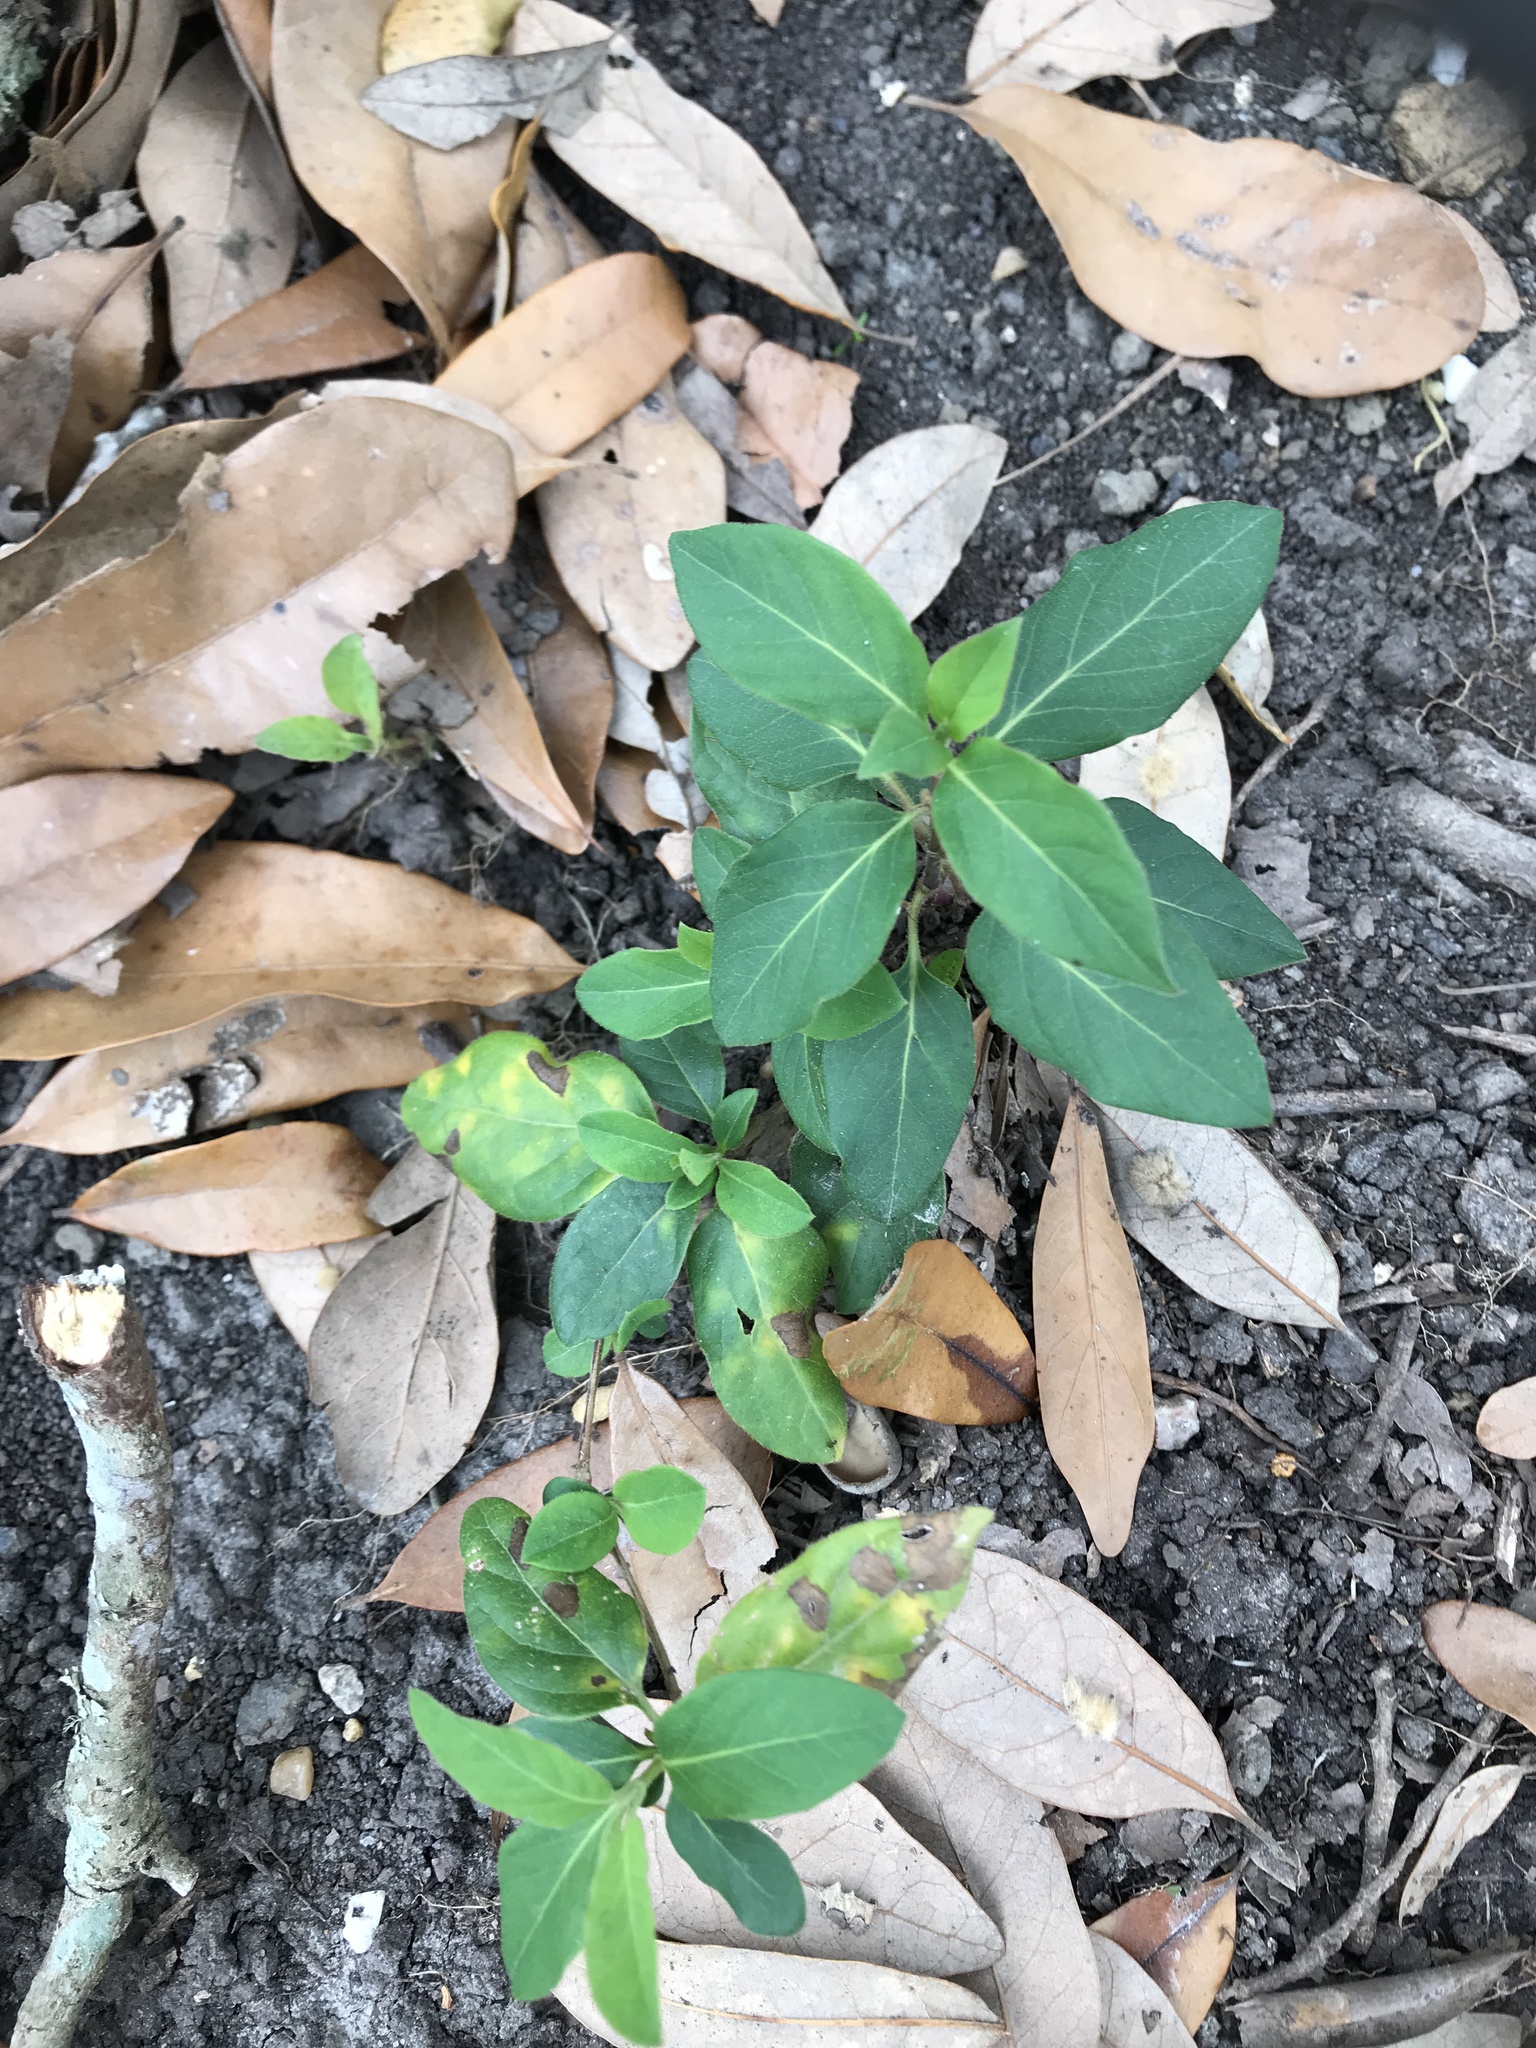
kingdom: Plantae
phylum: Tracheophyta
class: Magnoliopsida
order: Dipsacales
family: Caprifoliaceae
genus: Lonicera
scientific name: Lonicera japonica
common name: Japanese honeysuckle
